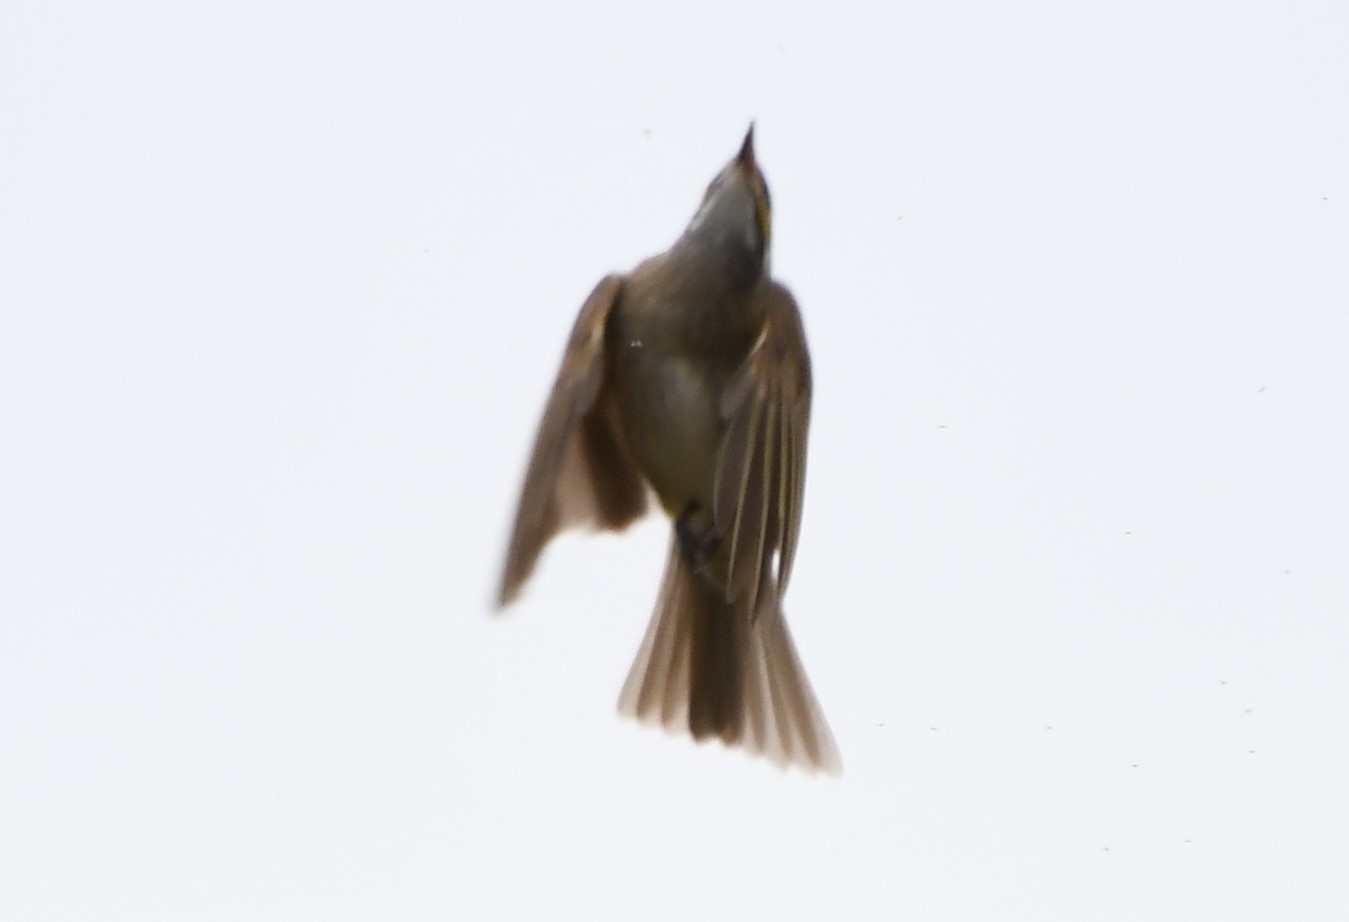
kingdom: Animalia
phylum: Chordata
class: Aves
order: Passeriformes
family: Meliphagidae
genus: Caligavis
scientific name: Caligavis chrysops
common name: Yellow-faced honeyeater
